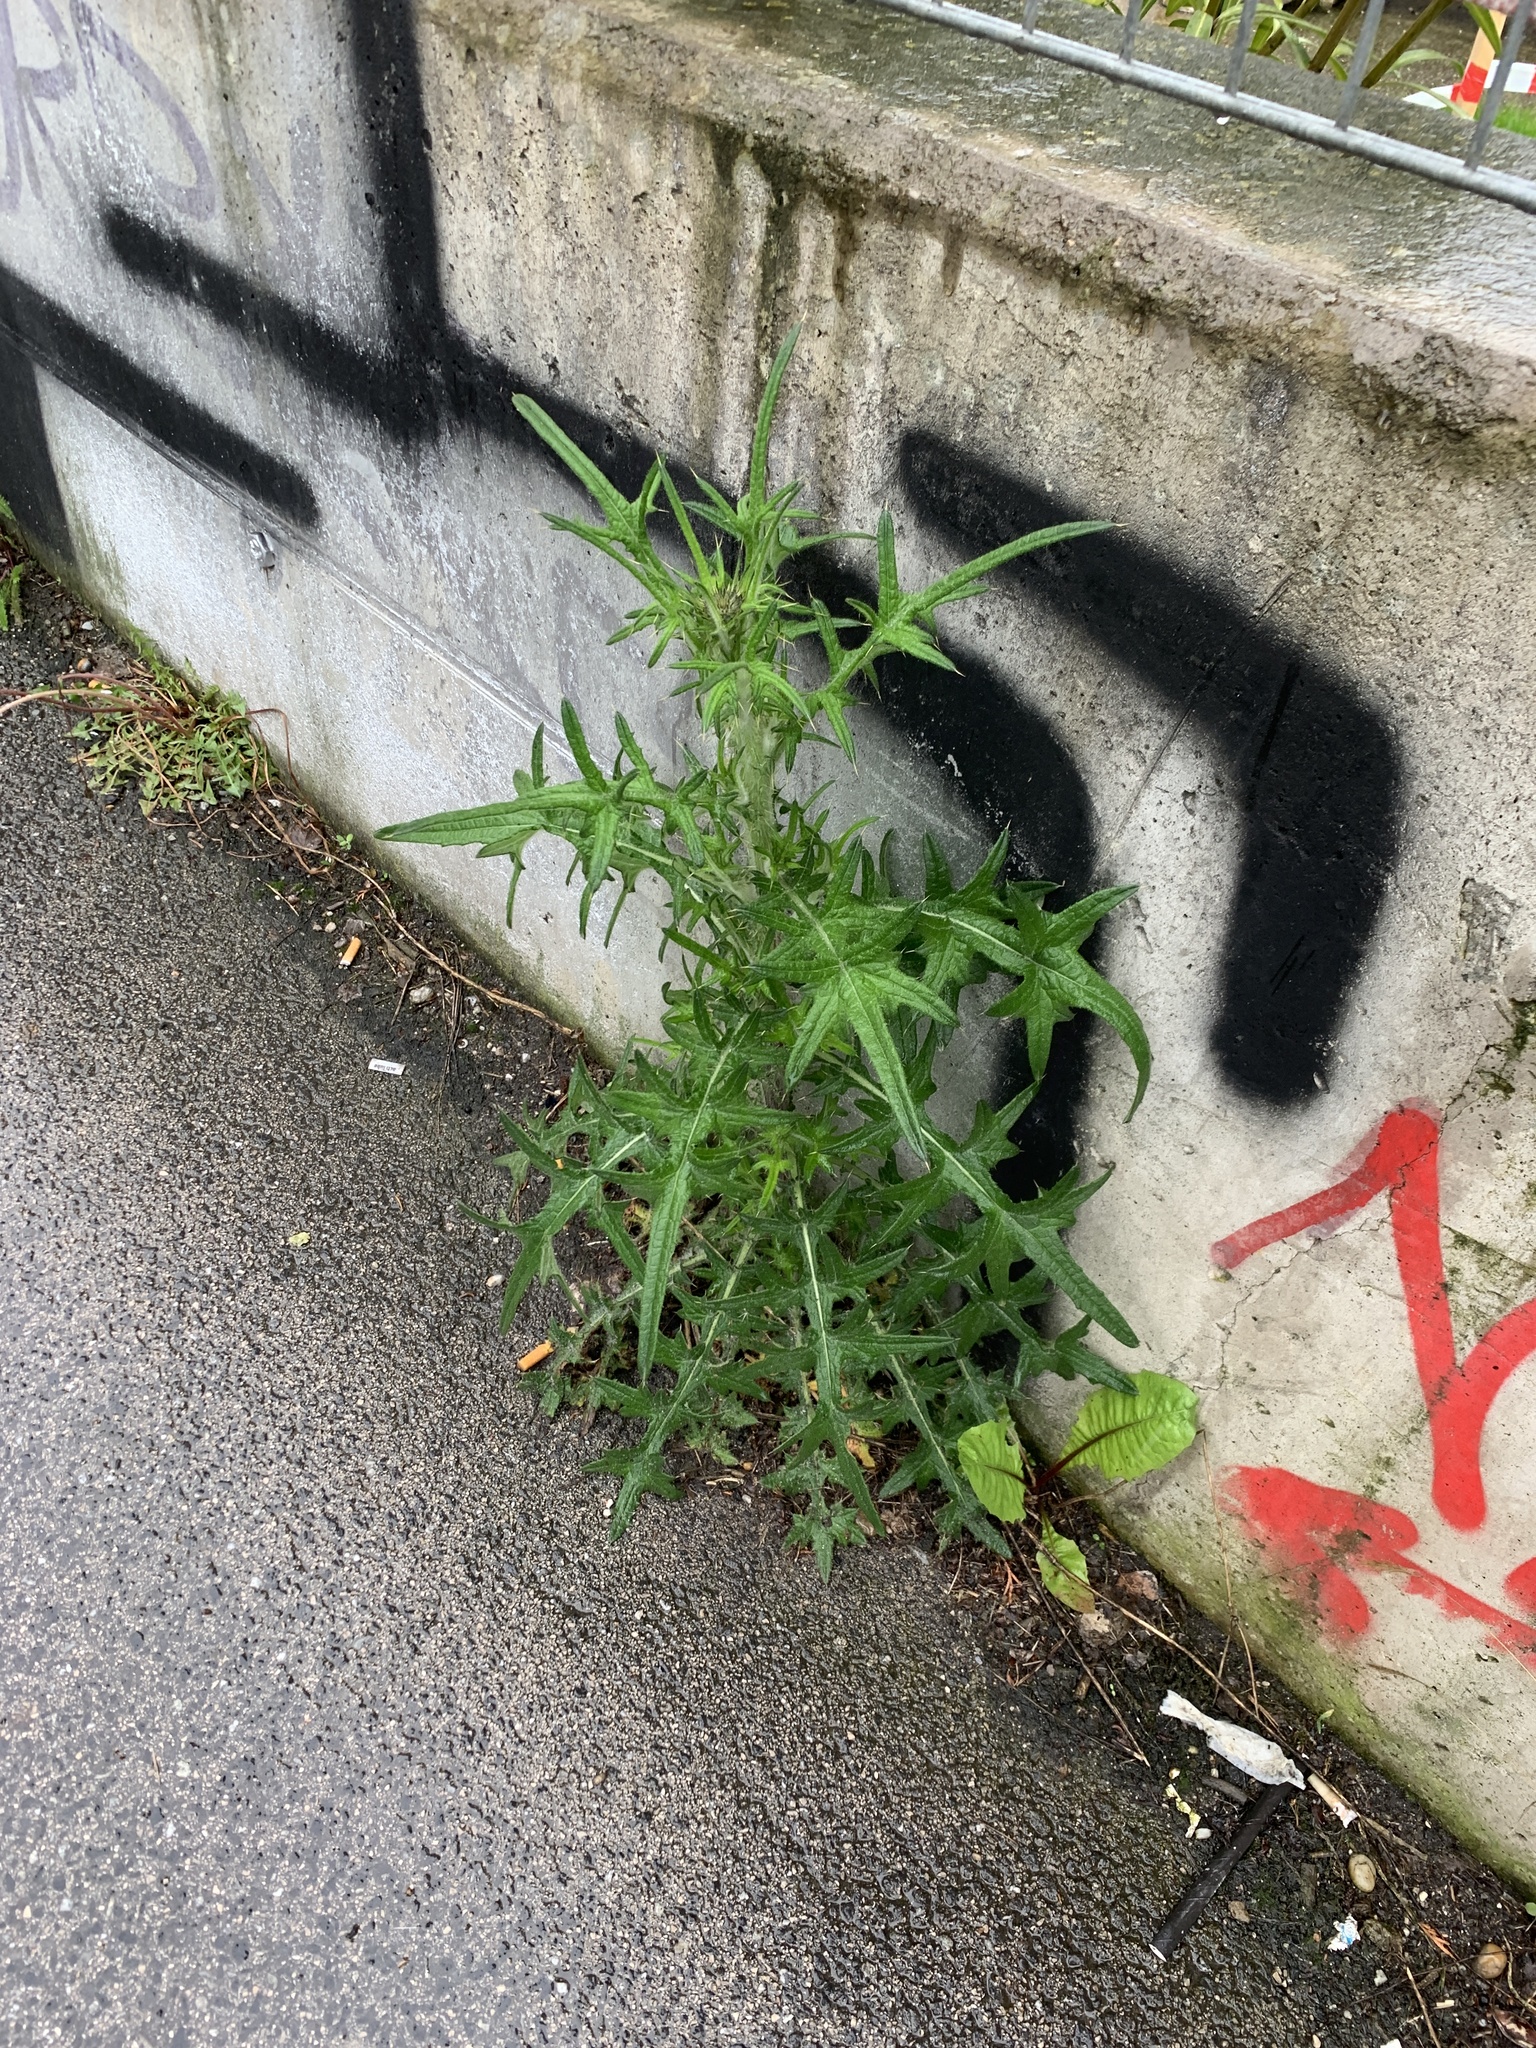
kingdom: Plantae
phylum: Tracheophyta
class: Magnoliopsida
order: Asterales
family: Asteraceae
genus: Cirsium
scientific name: Cirsium vulgare
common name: Bull thistle
